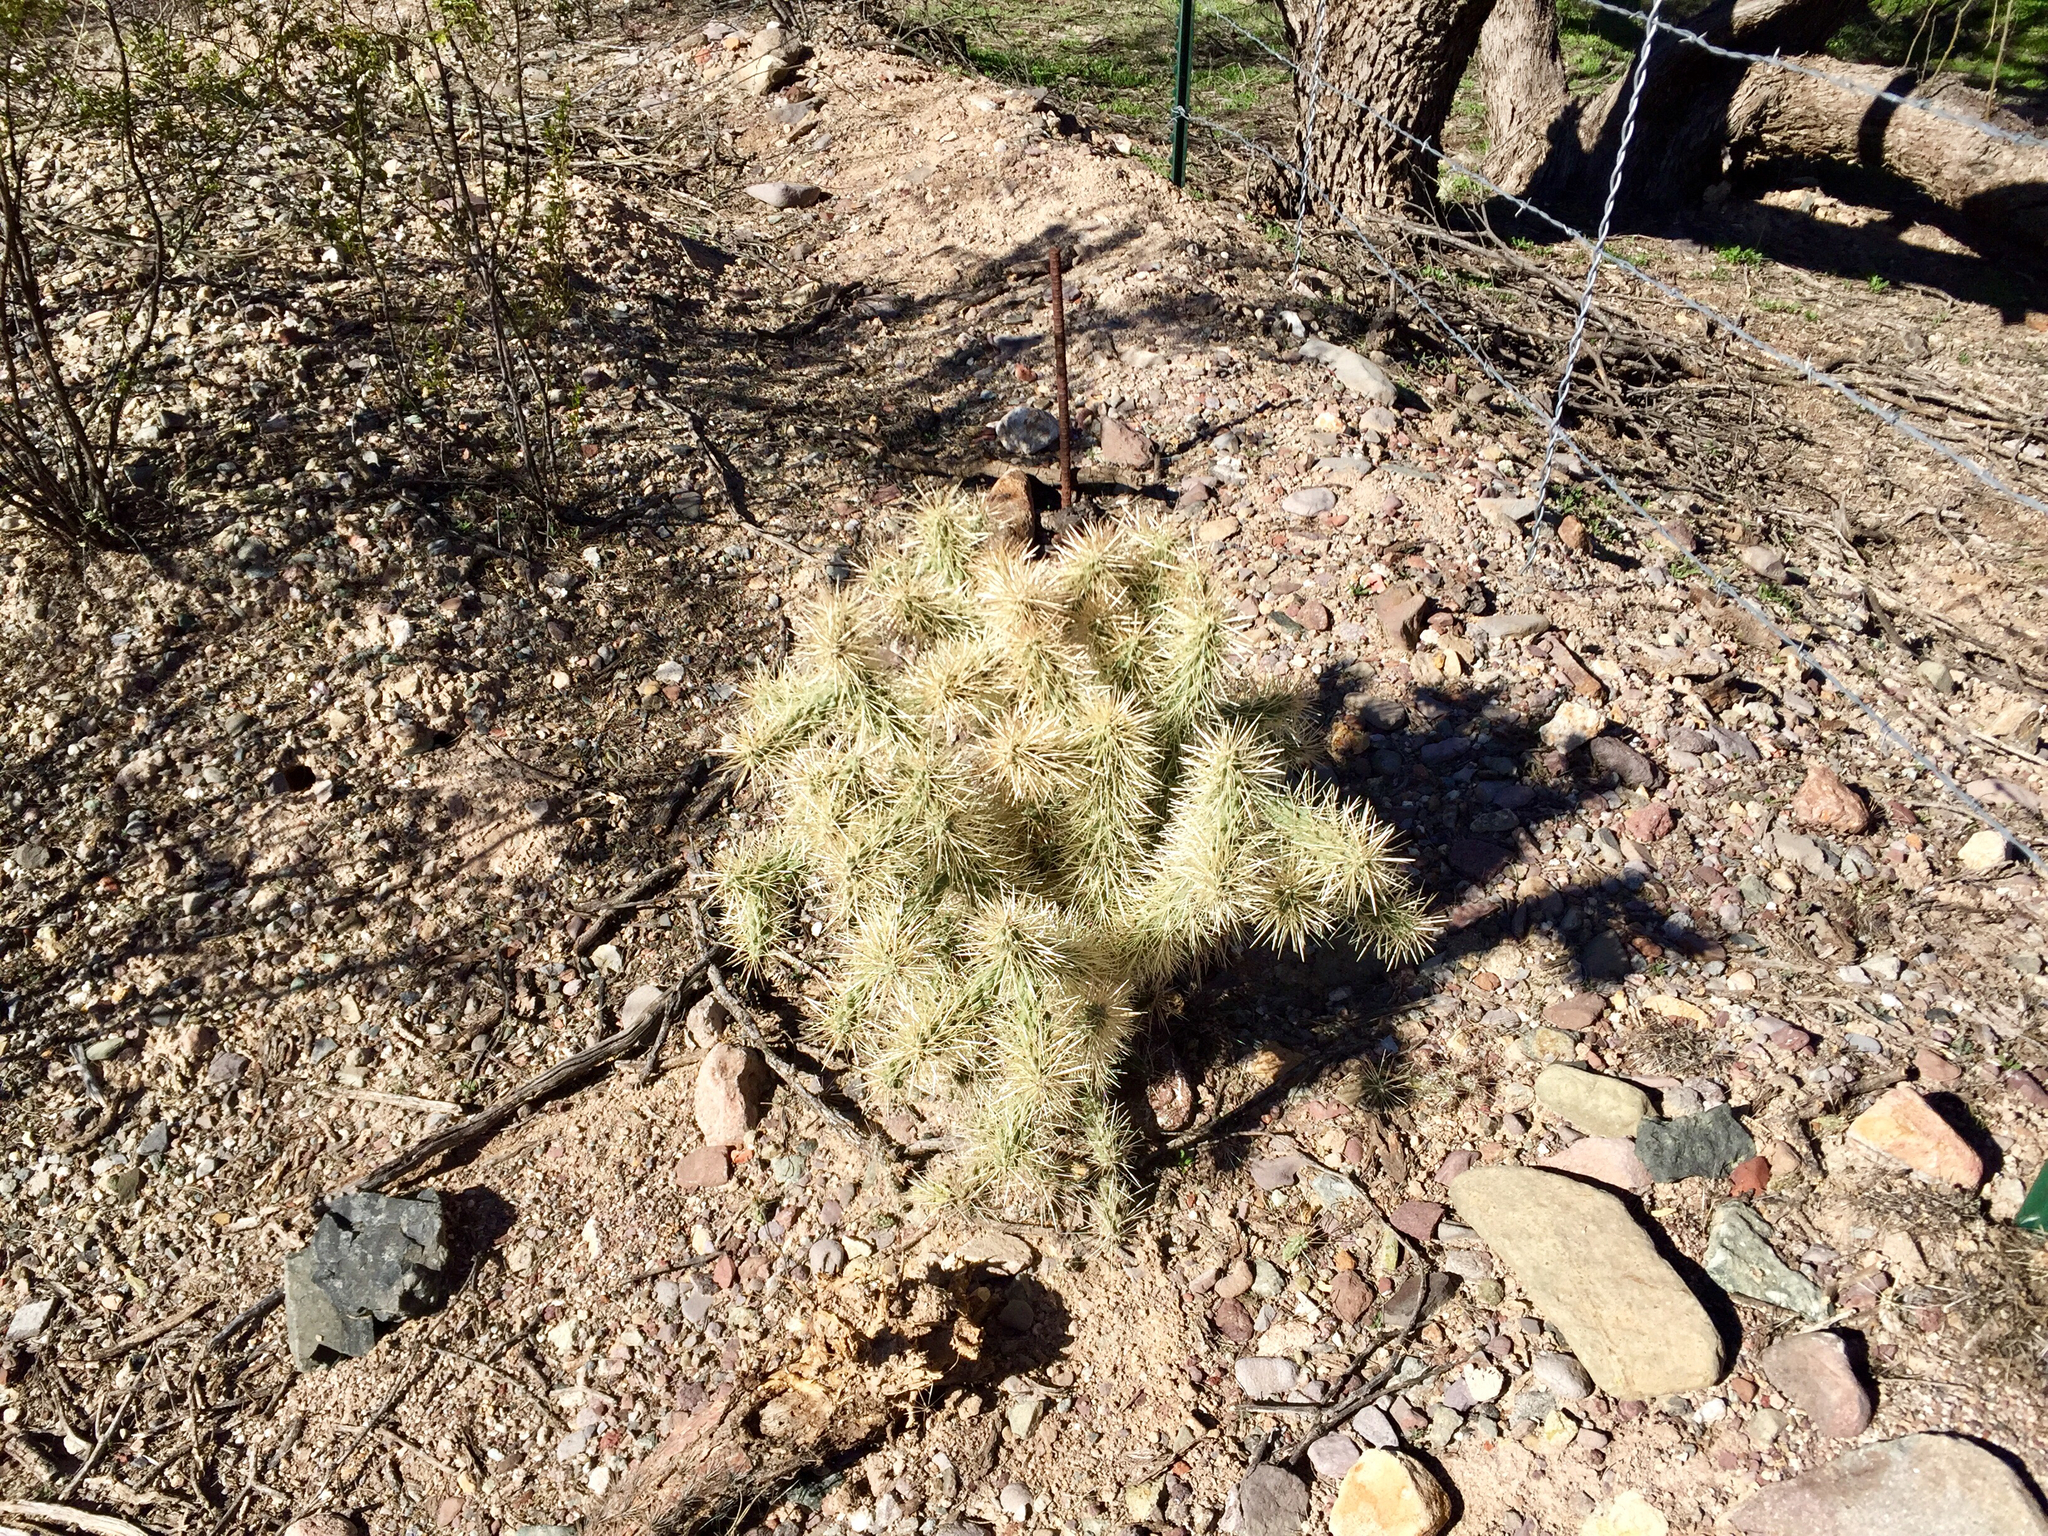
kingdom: Plantae
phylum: Tracheophyta
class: Magnoliopsida
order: Caryophyllales
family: Cactaceae
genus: Cylindropuntia
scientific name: Cylindropuntia fulgida
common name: Jumping cholla
